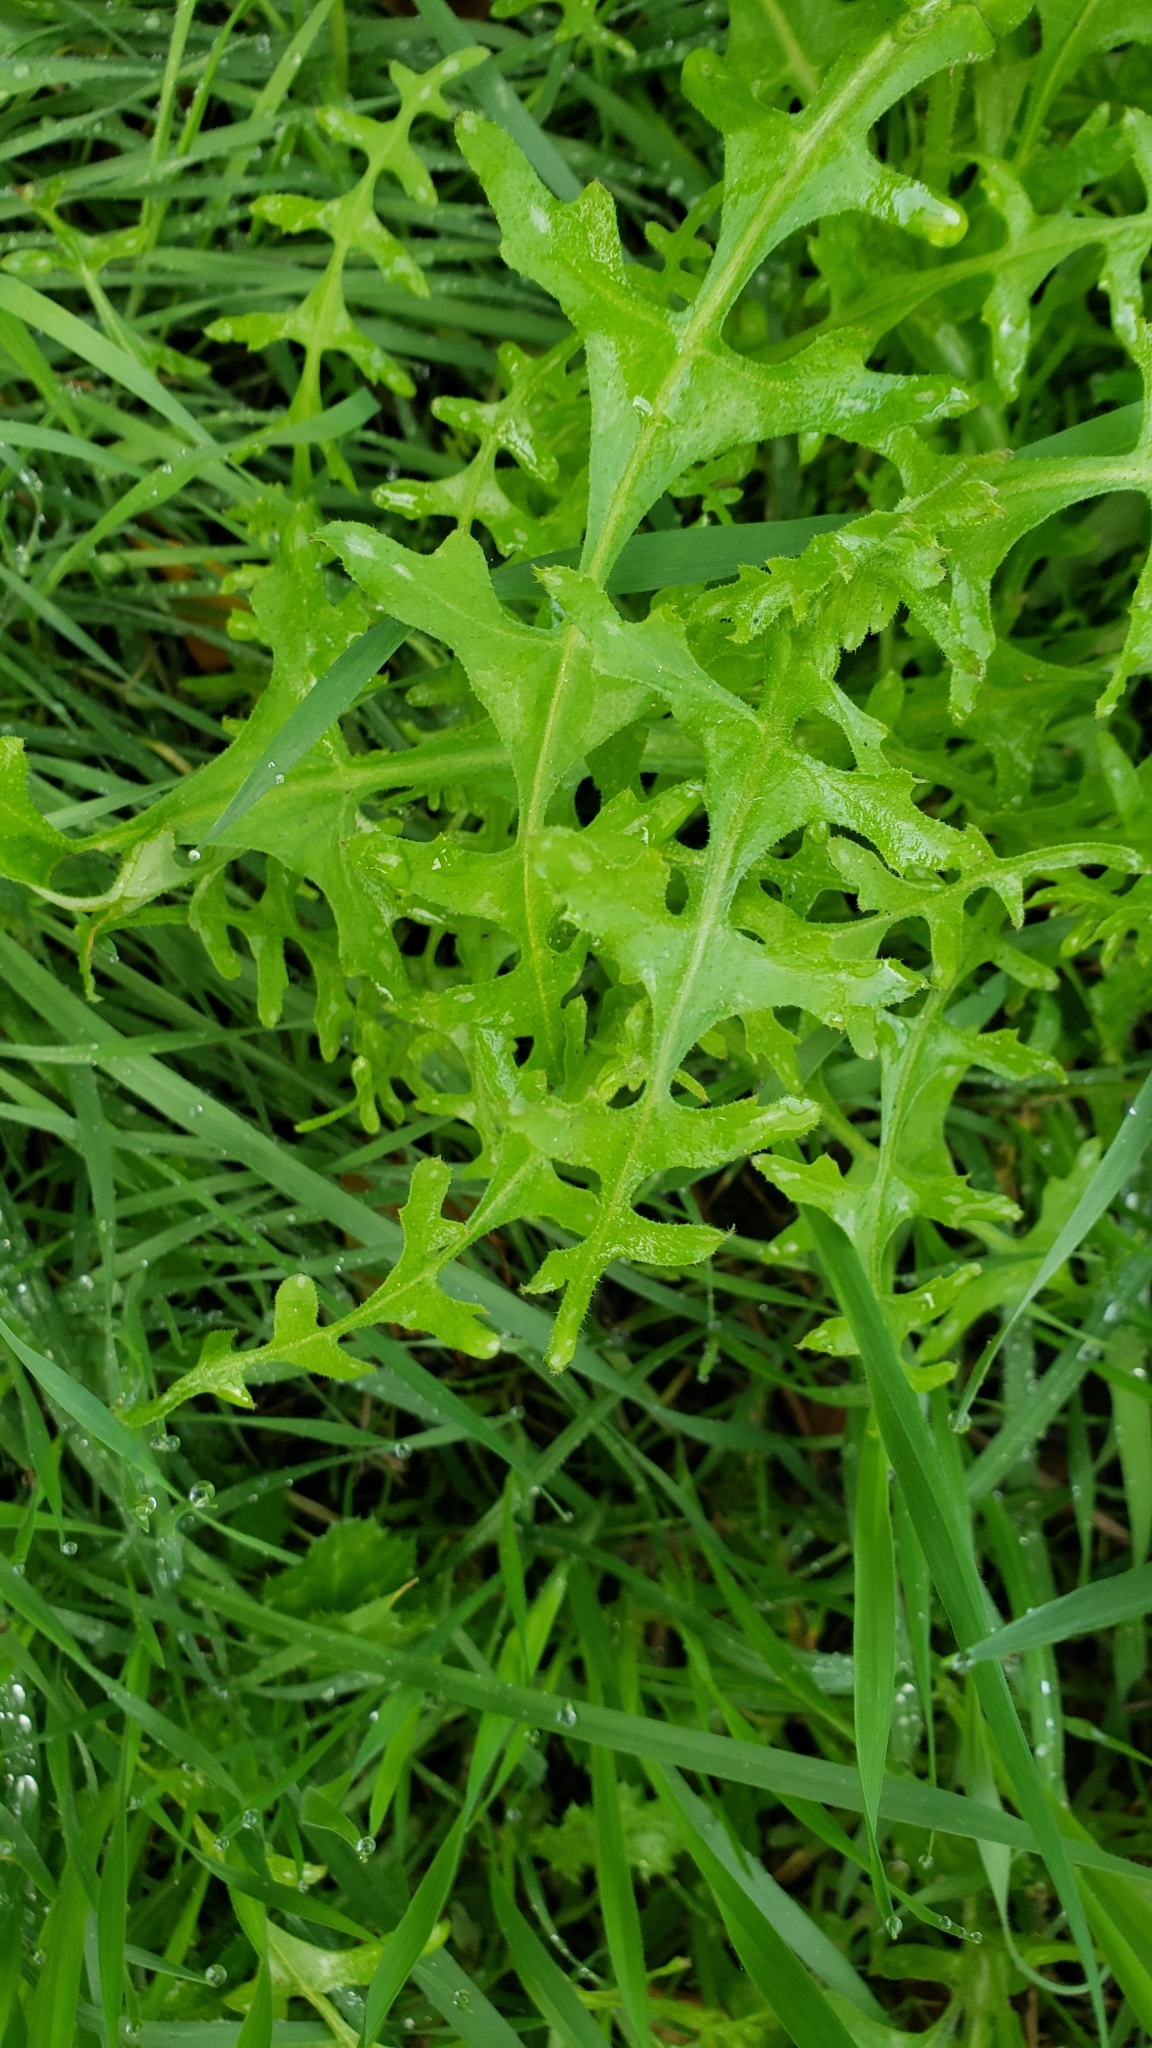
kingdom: Plantae
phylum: Tracheophyta
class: Magnoliopsida
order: Boraginales
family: Hydrophyllaceae
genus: Pholistoma
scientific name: Pholistoma auritum
